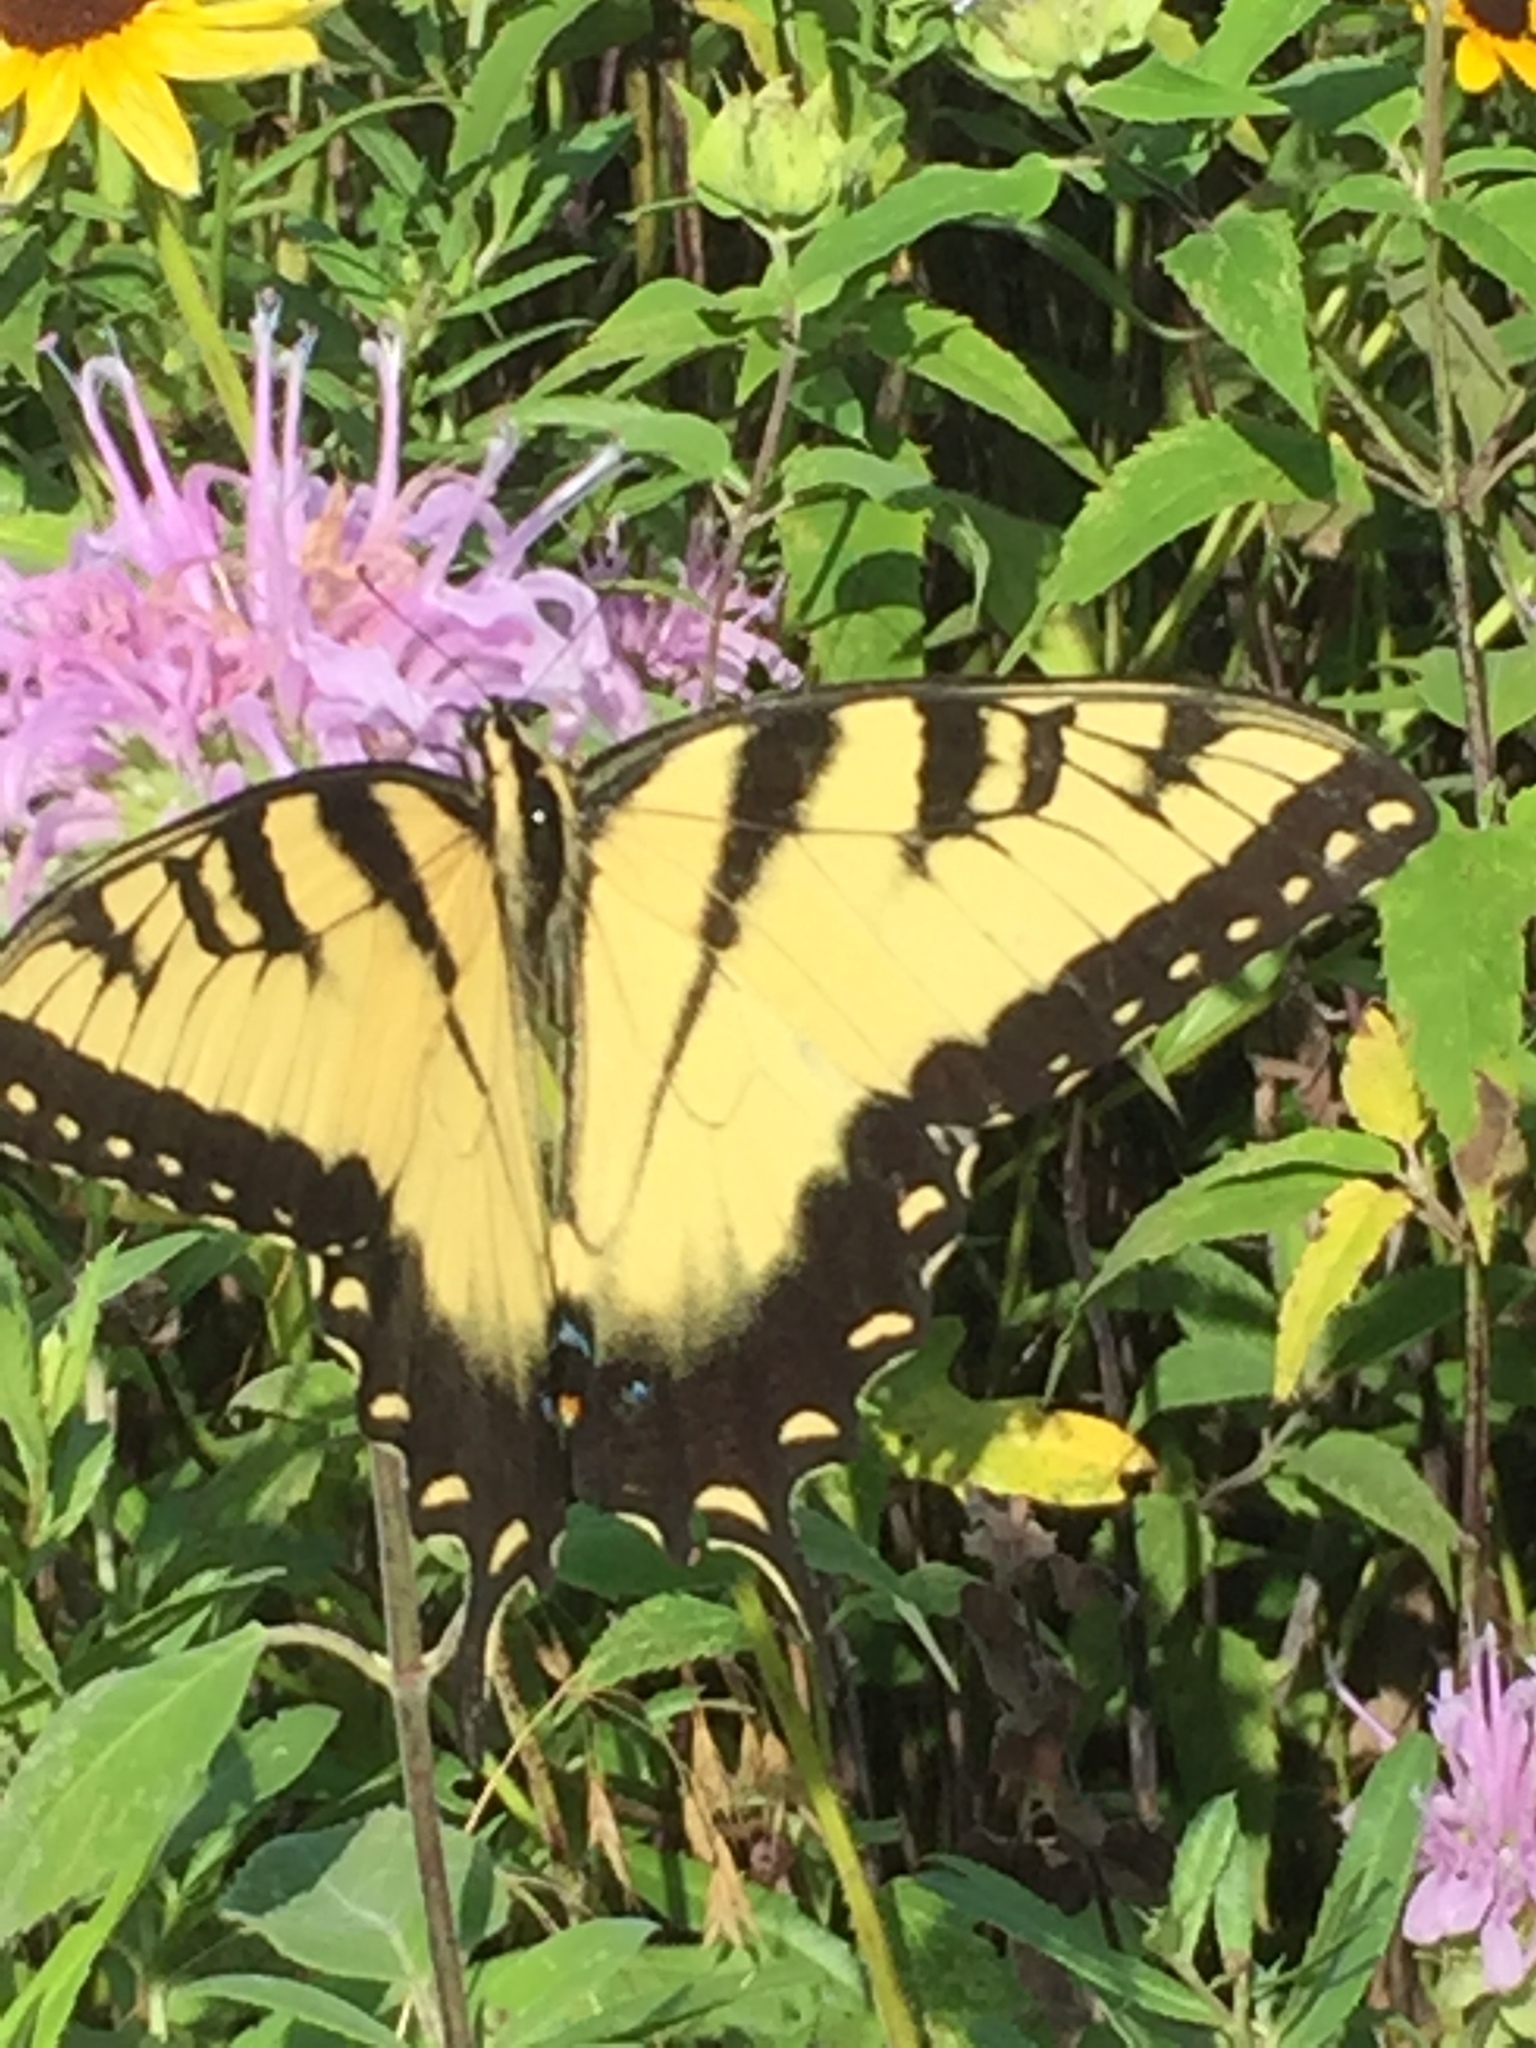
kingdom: Animalia
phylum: Arthropoda
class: Insecta
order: Lepidoptera
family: Papilionidae
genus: Papilio
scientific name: Papilio glaucus
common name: Tiger swallowtail
